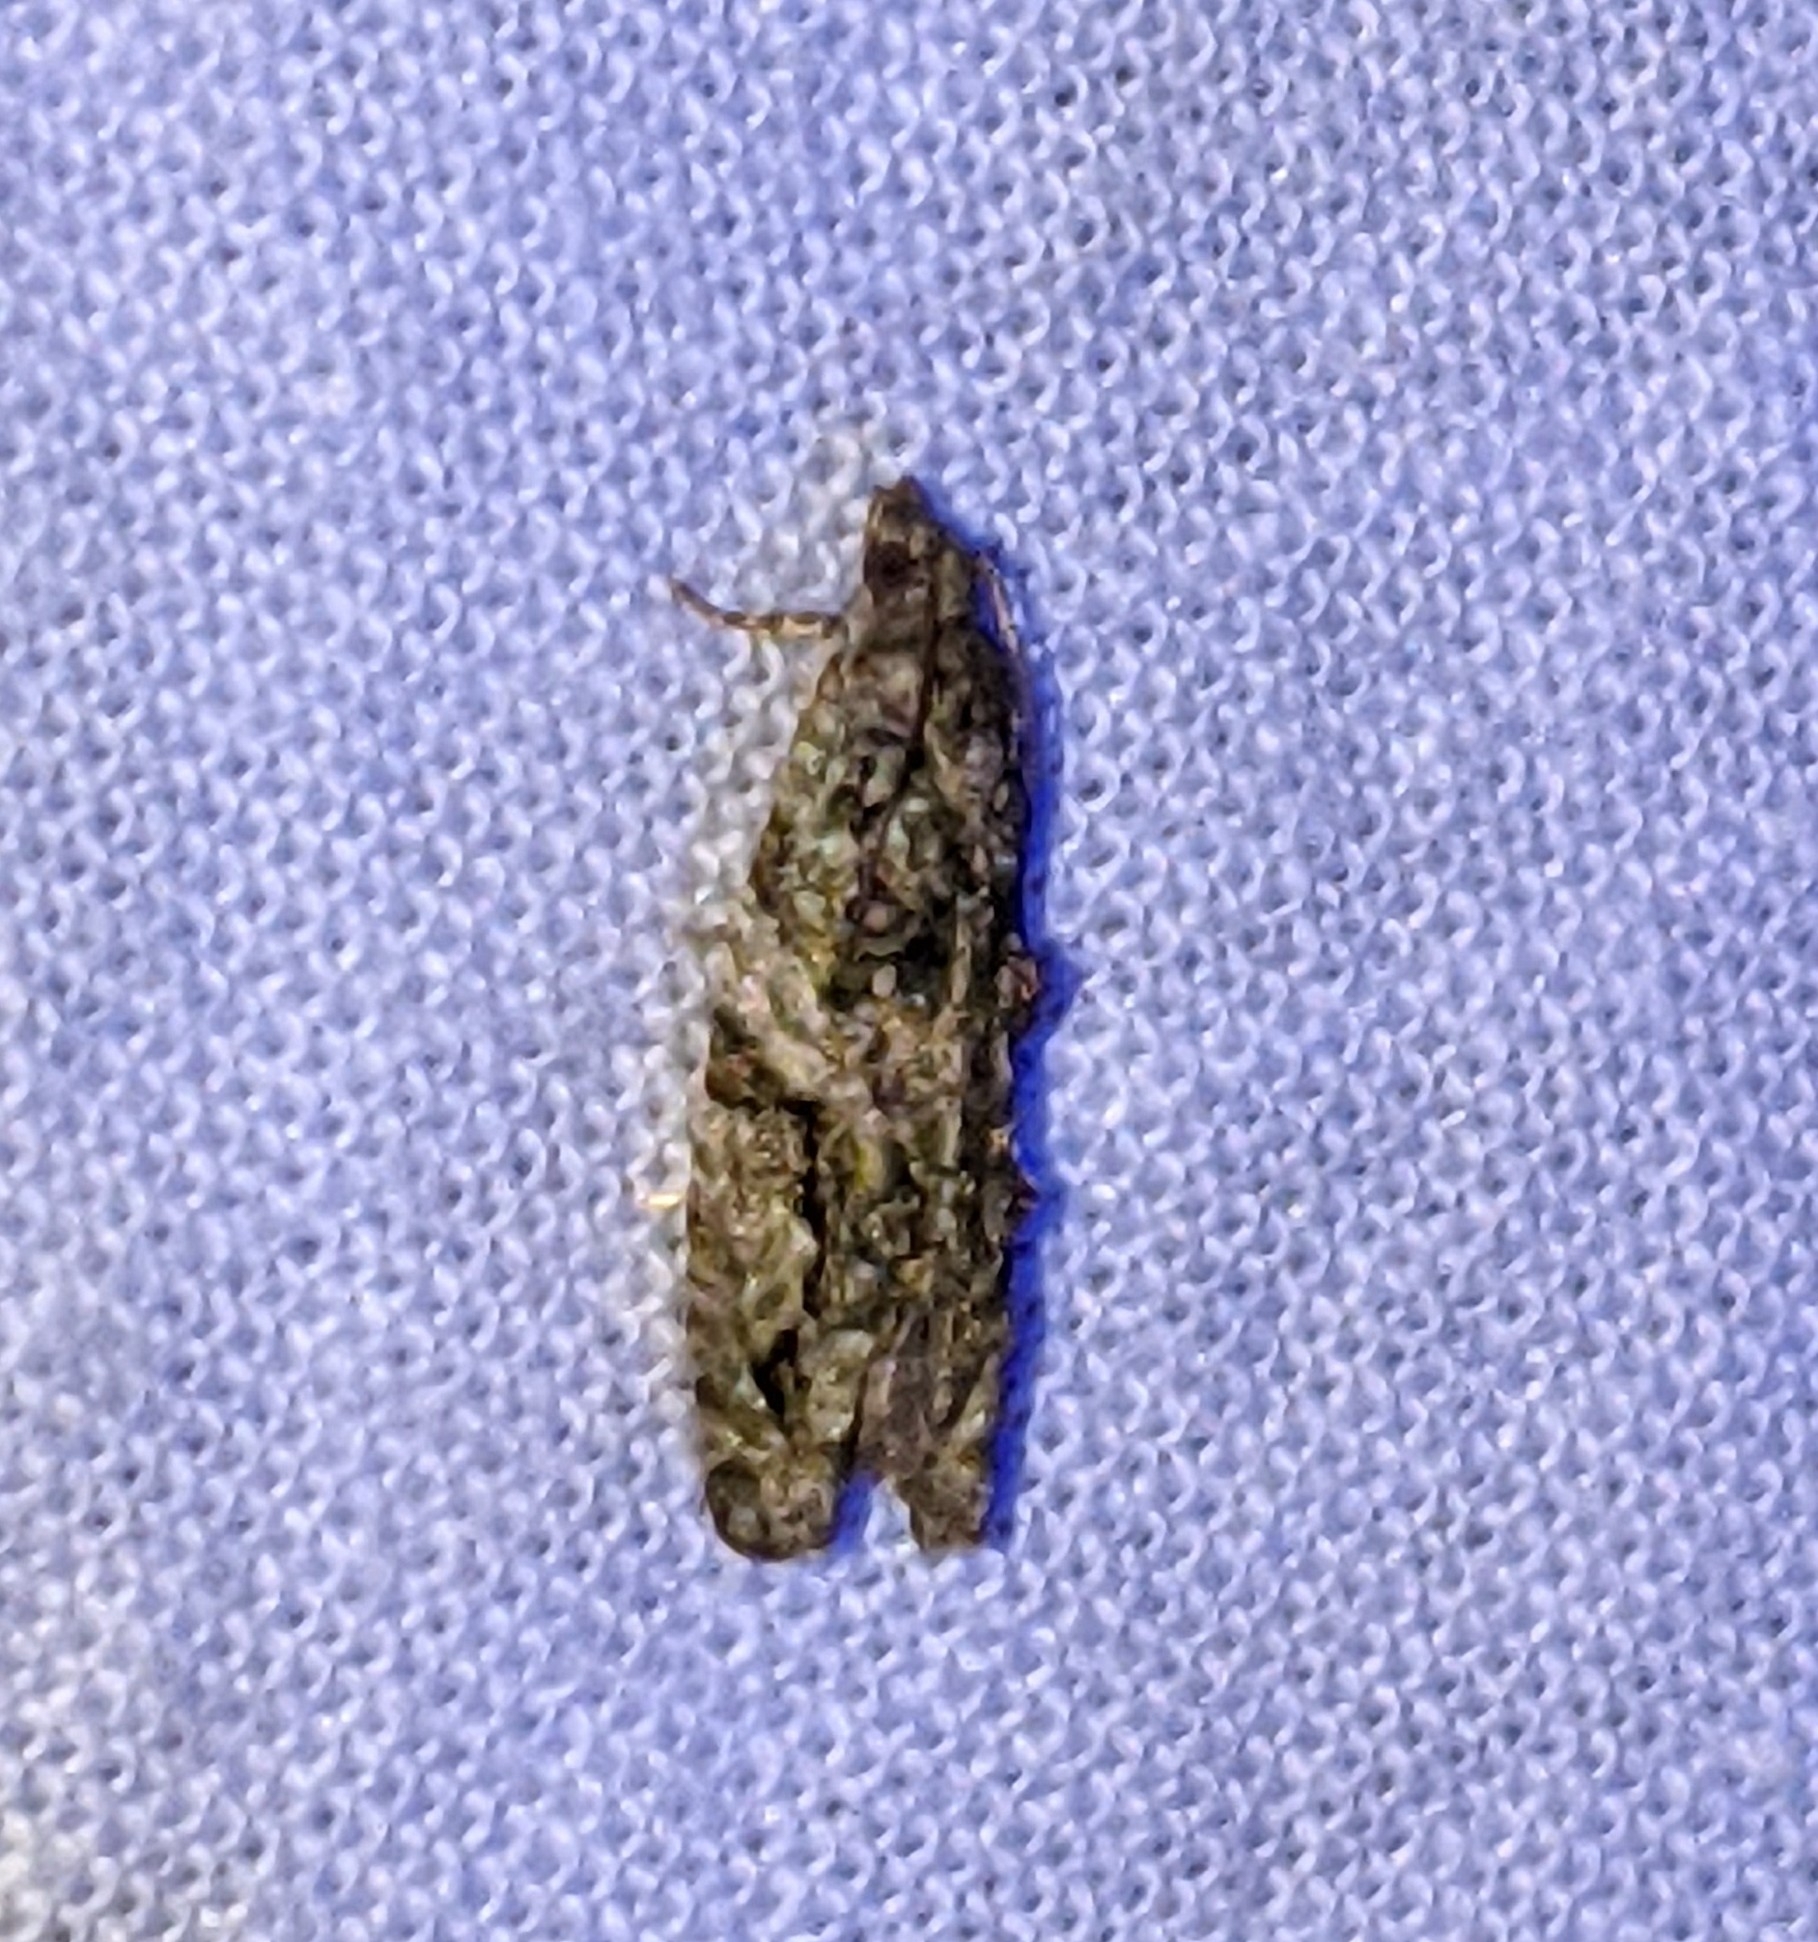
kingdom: Animalia
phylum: Arthropoda
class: Insecta
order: Lepidoptera
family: Tortricidae
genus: Proteoteras
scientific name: Proteoteras aesculana
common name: Maple twig borer moth
